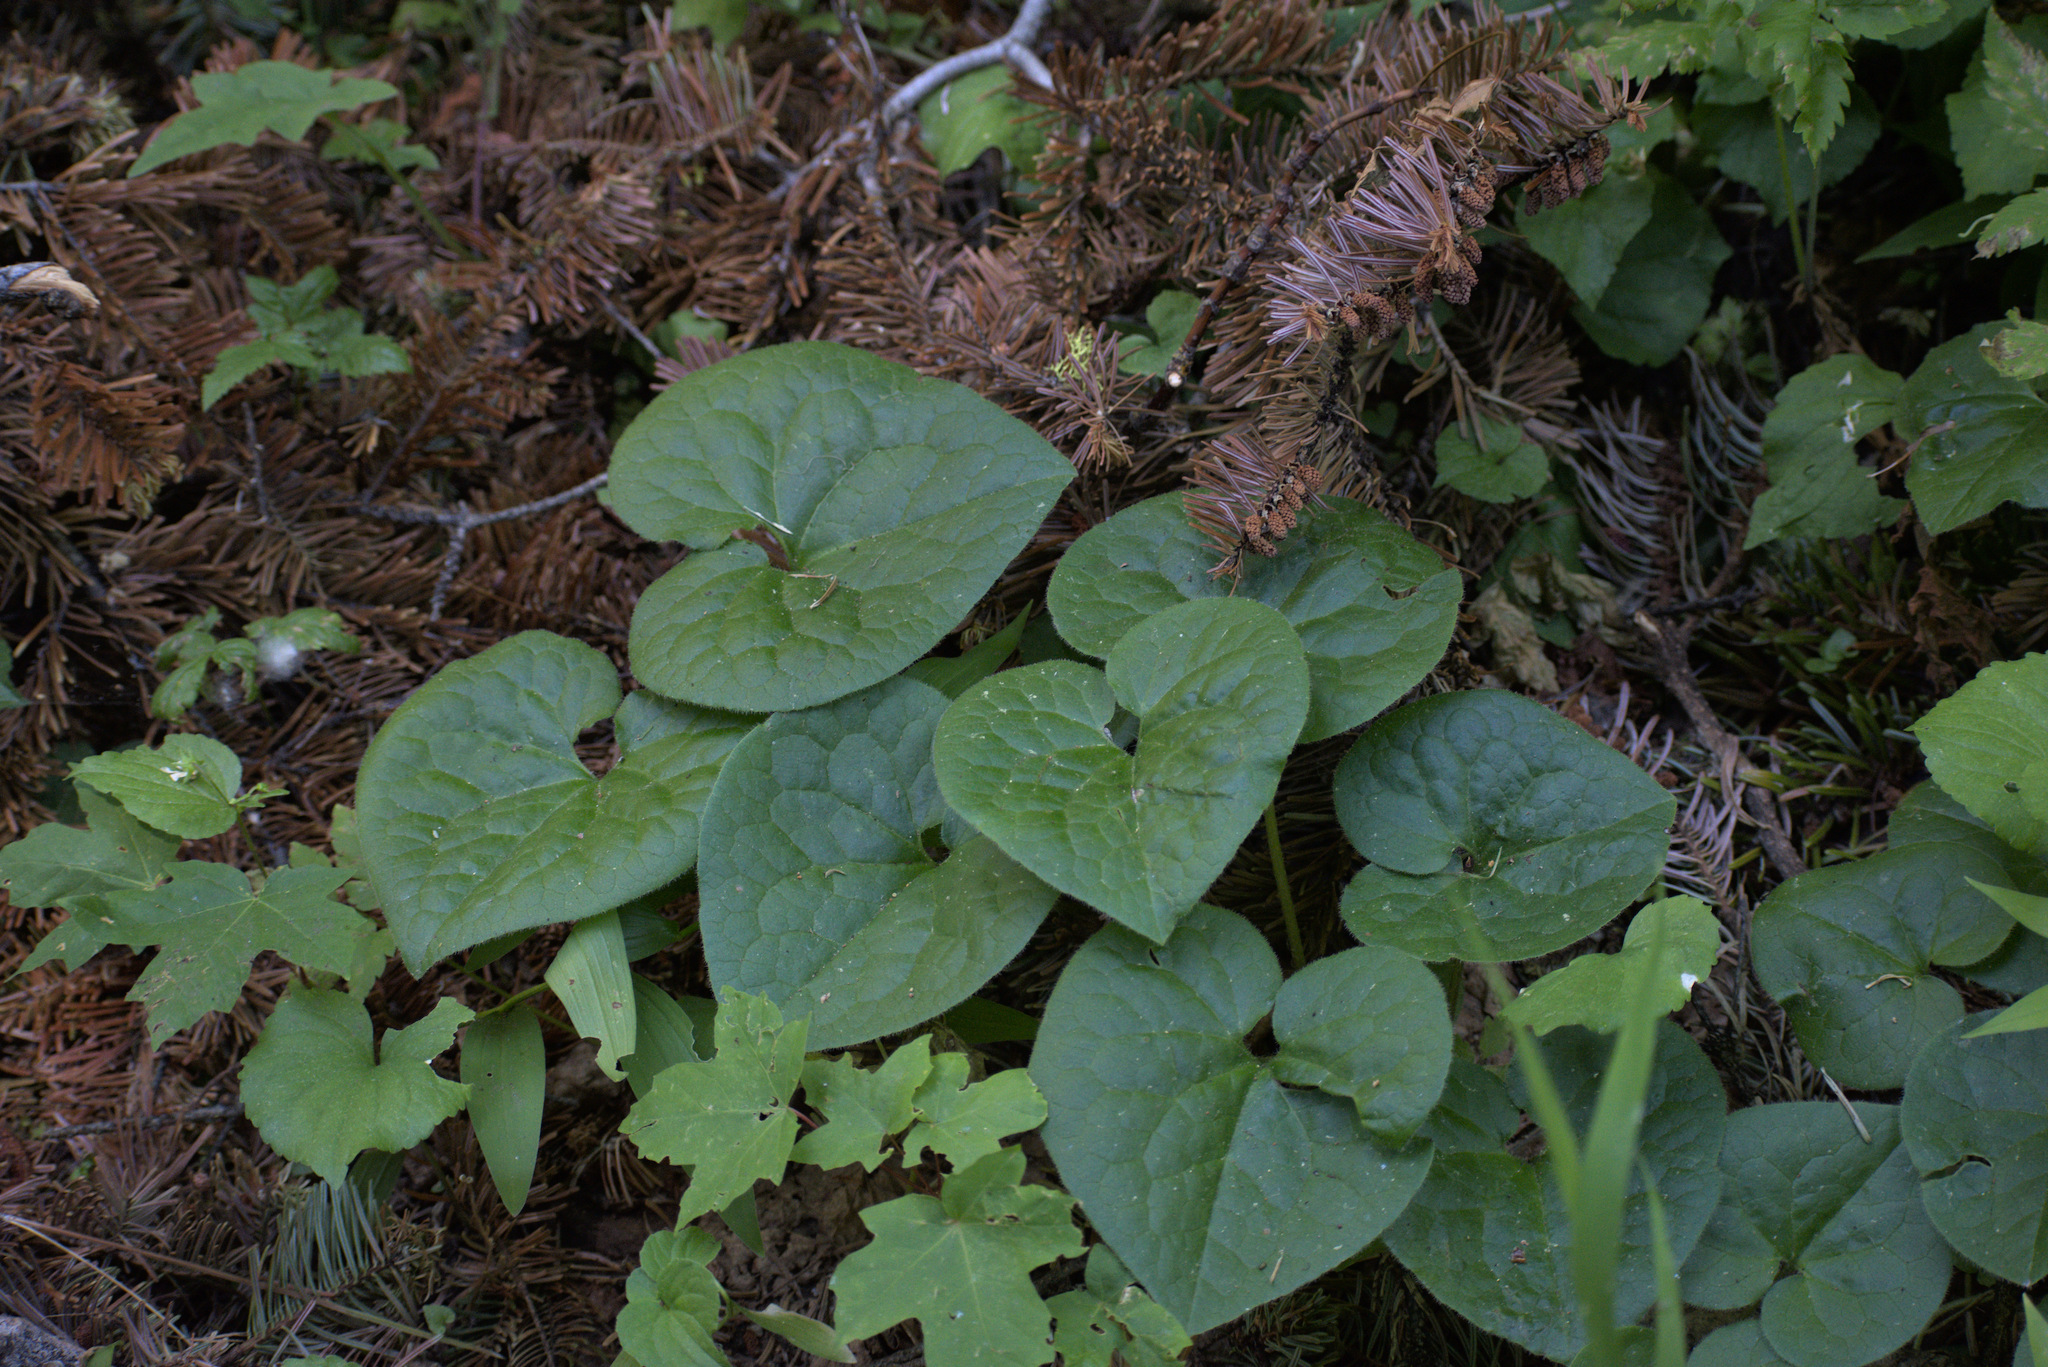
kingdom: Plantae
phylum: Tracheophyta
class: Magnoliopsida
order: Piperales
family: Aristolochiaceae
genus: Asarum
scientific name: Asarum caudatum
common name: Wild ginger
